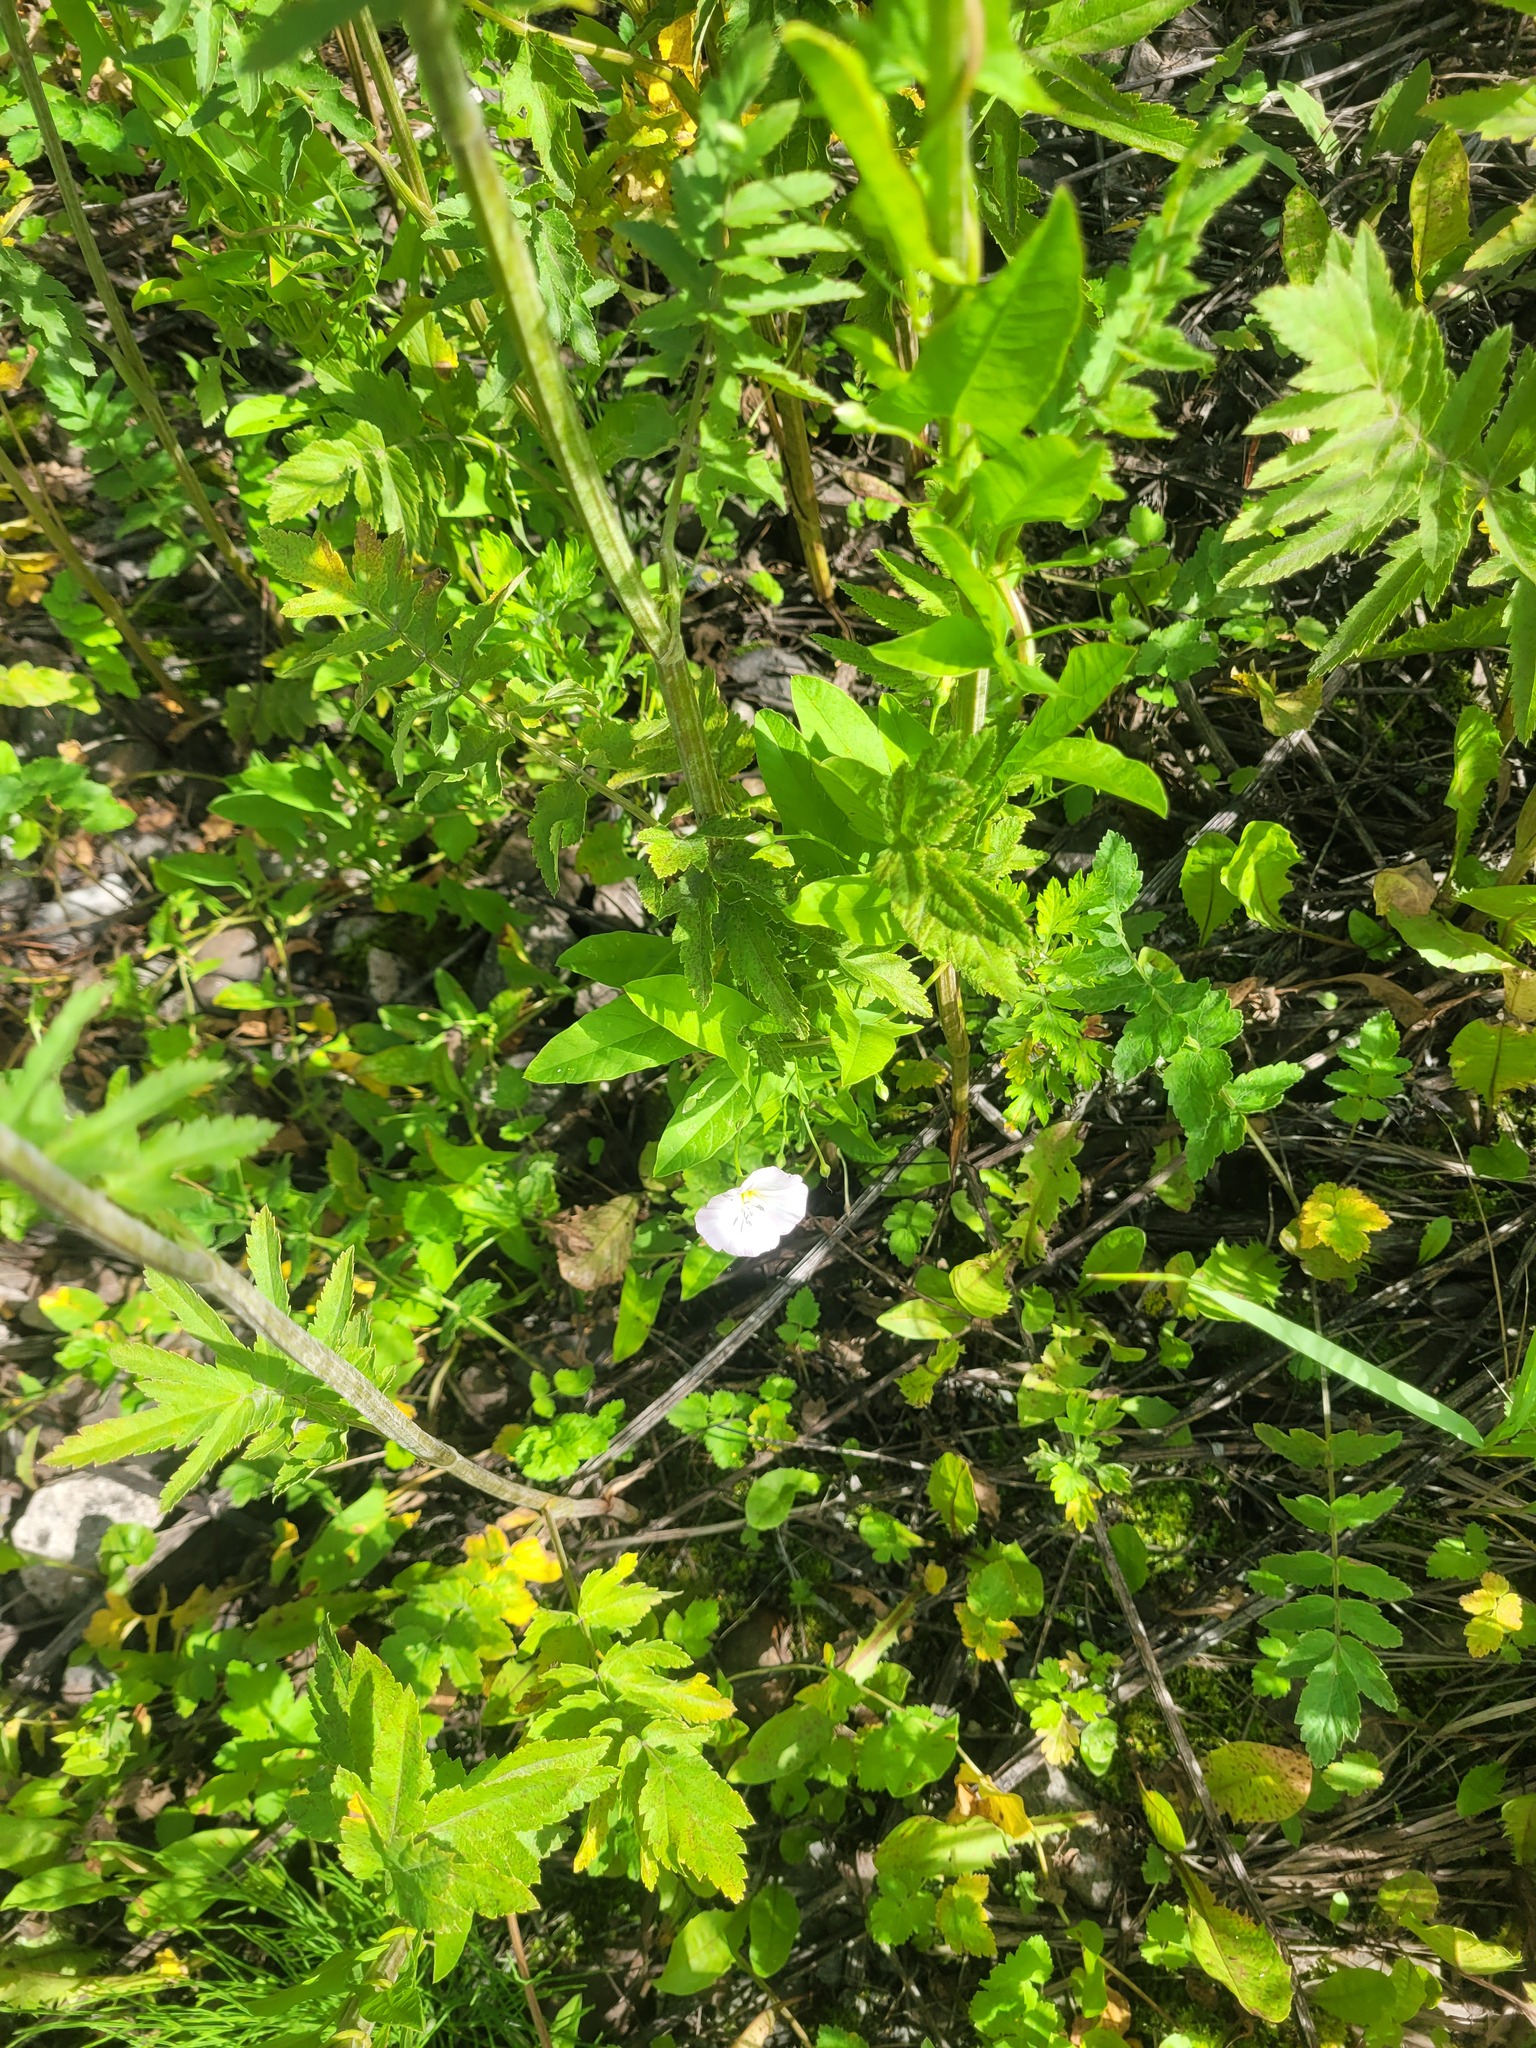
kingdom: Plantae
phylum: Tracheophyta
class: Magnoliopsida
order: Solanales
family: Convolvulaceae
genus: Convolvulus
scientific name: Convolvulus arvensis
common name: Field bindweed
